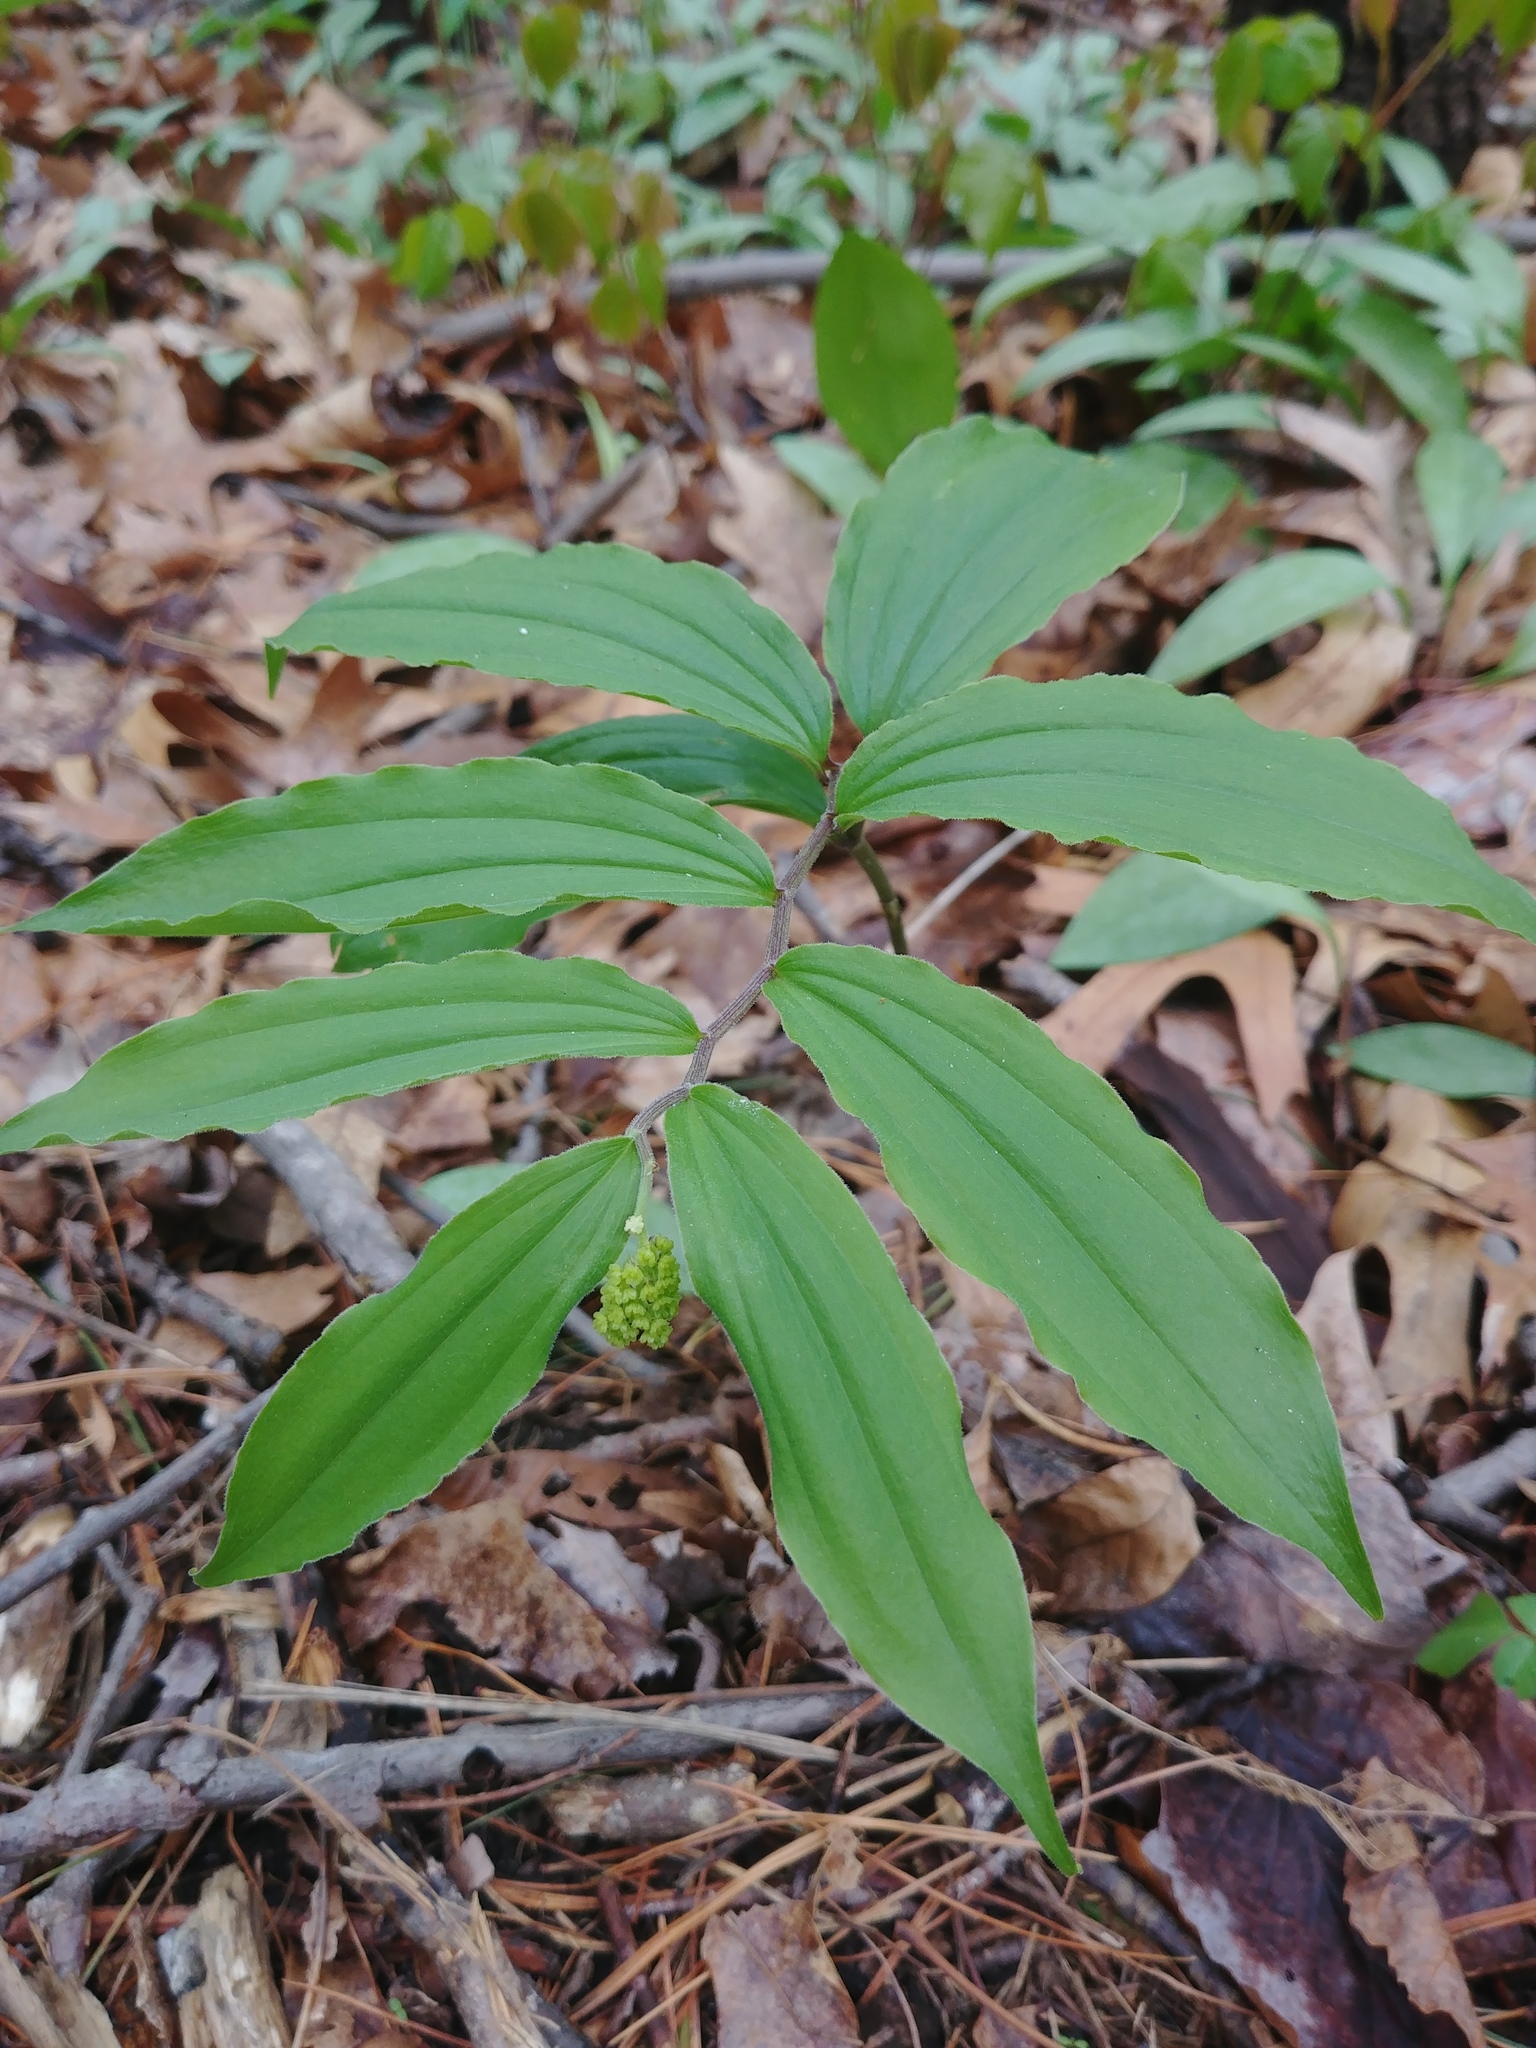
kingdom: Plantae
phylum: Tracheophyta
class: Liliopsida
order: Asparagales
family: Asparagaceae
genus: Maianthemum
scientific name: Maianthemum racemosum
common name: False spikenard
